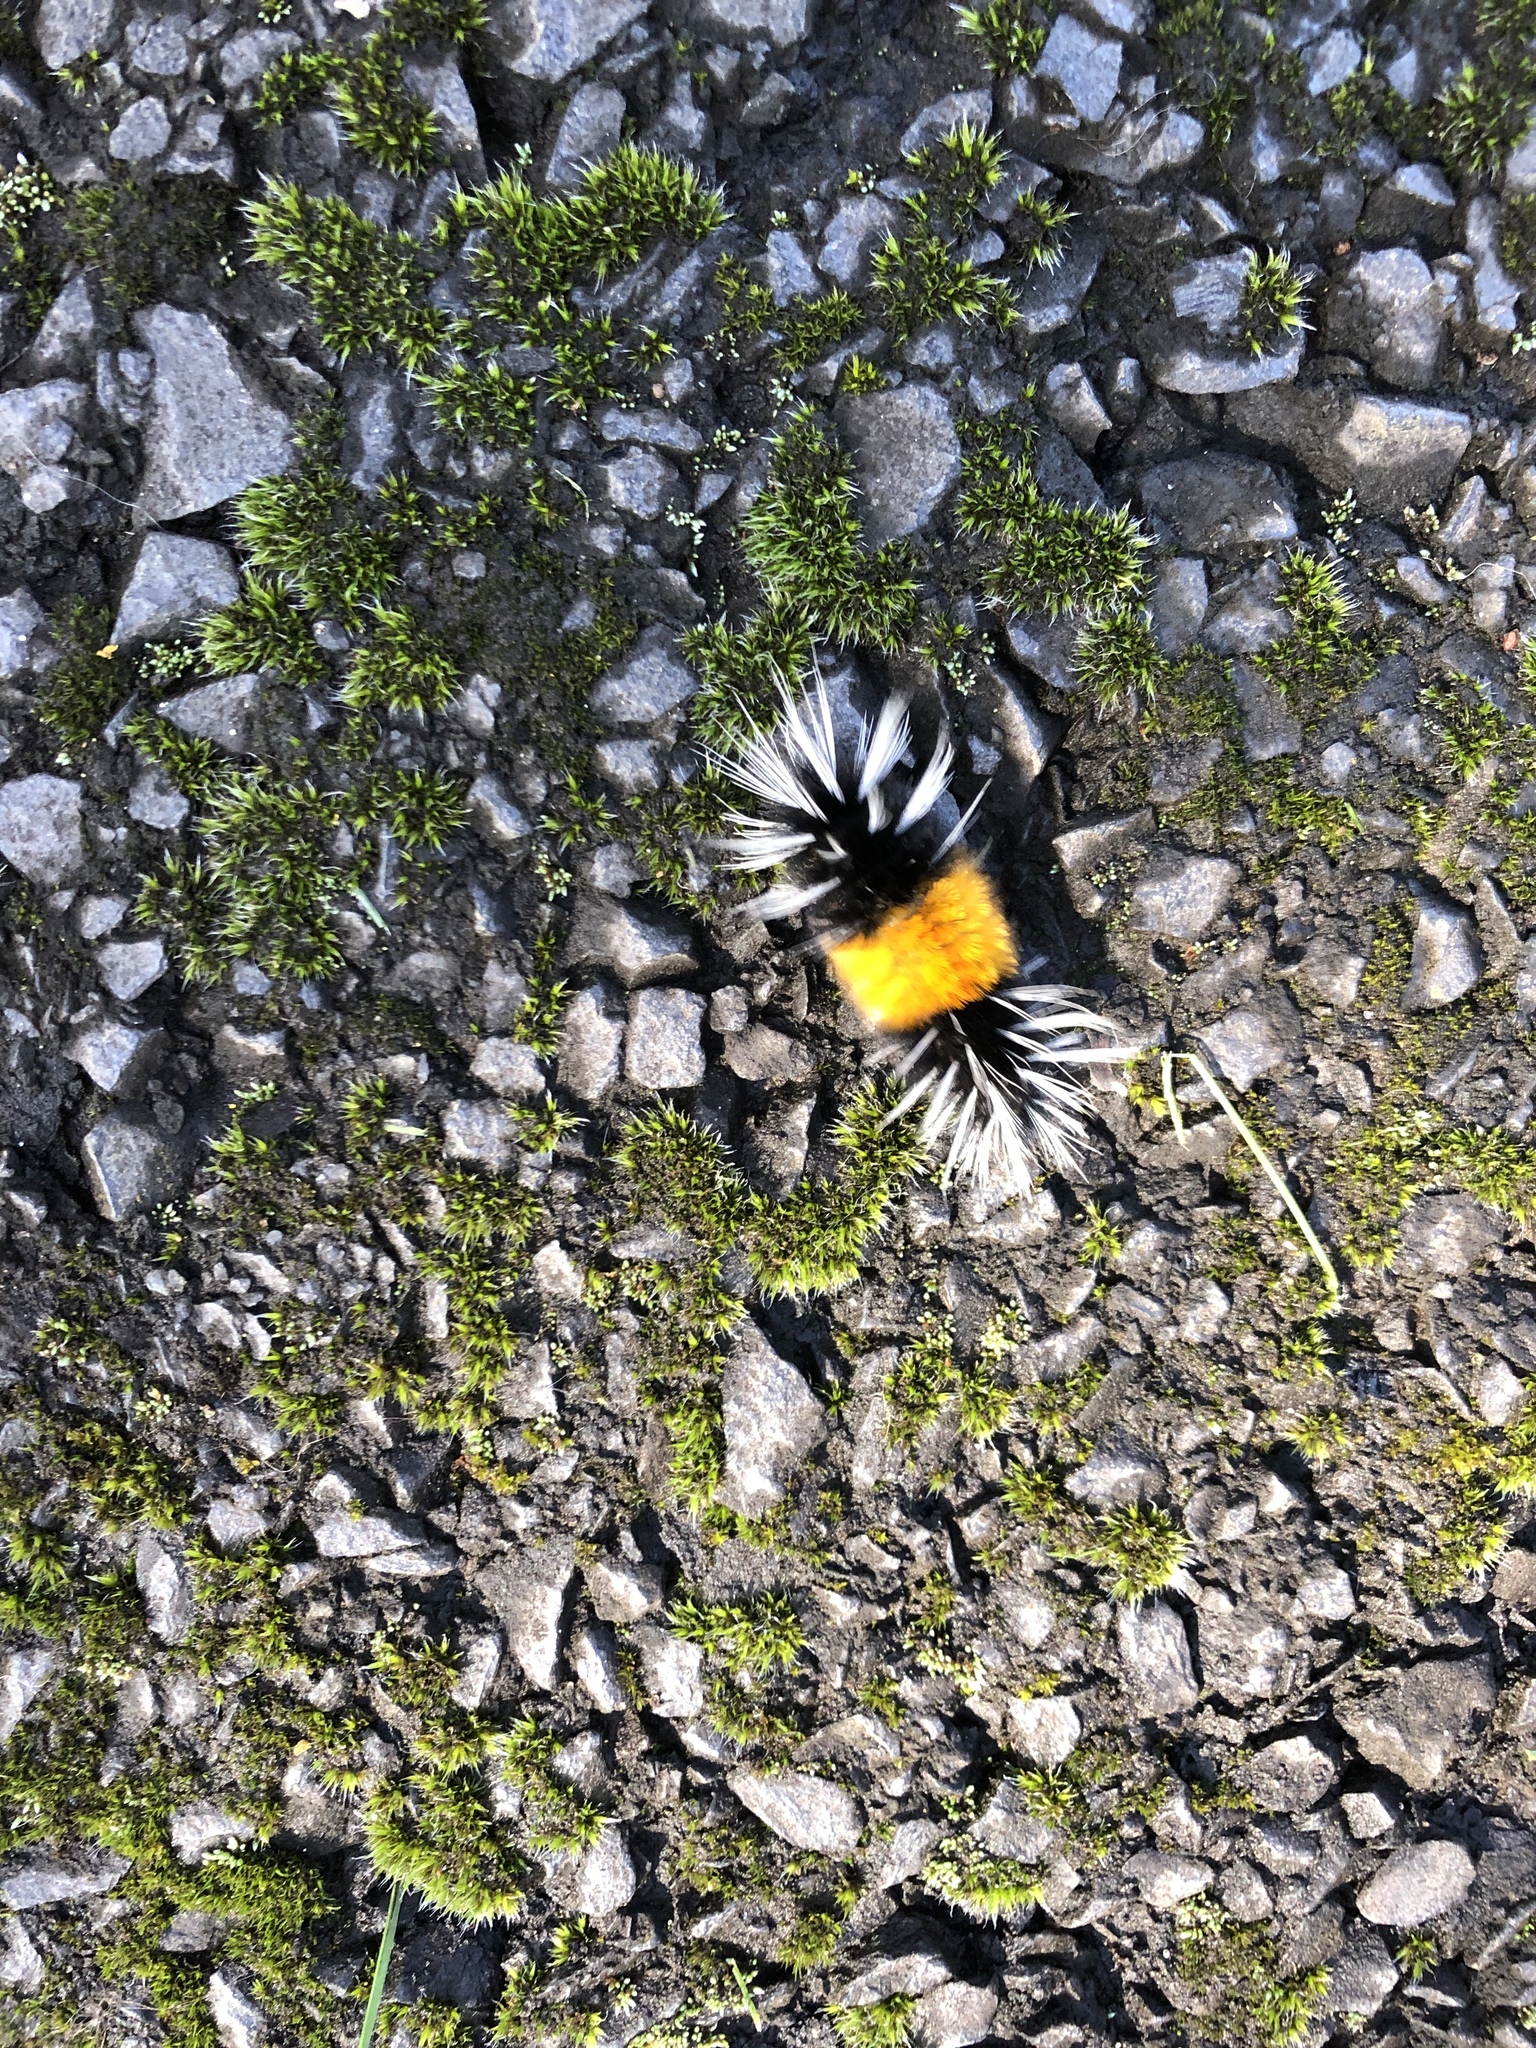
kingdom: Animalia
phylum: Arthropoda
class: Insecta
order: Lepidoptera
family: Erebidae
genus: Lophocampa
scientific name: Lophocampa maculata
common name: Spotted tussock moth
